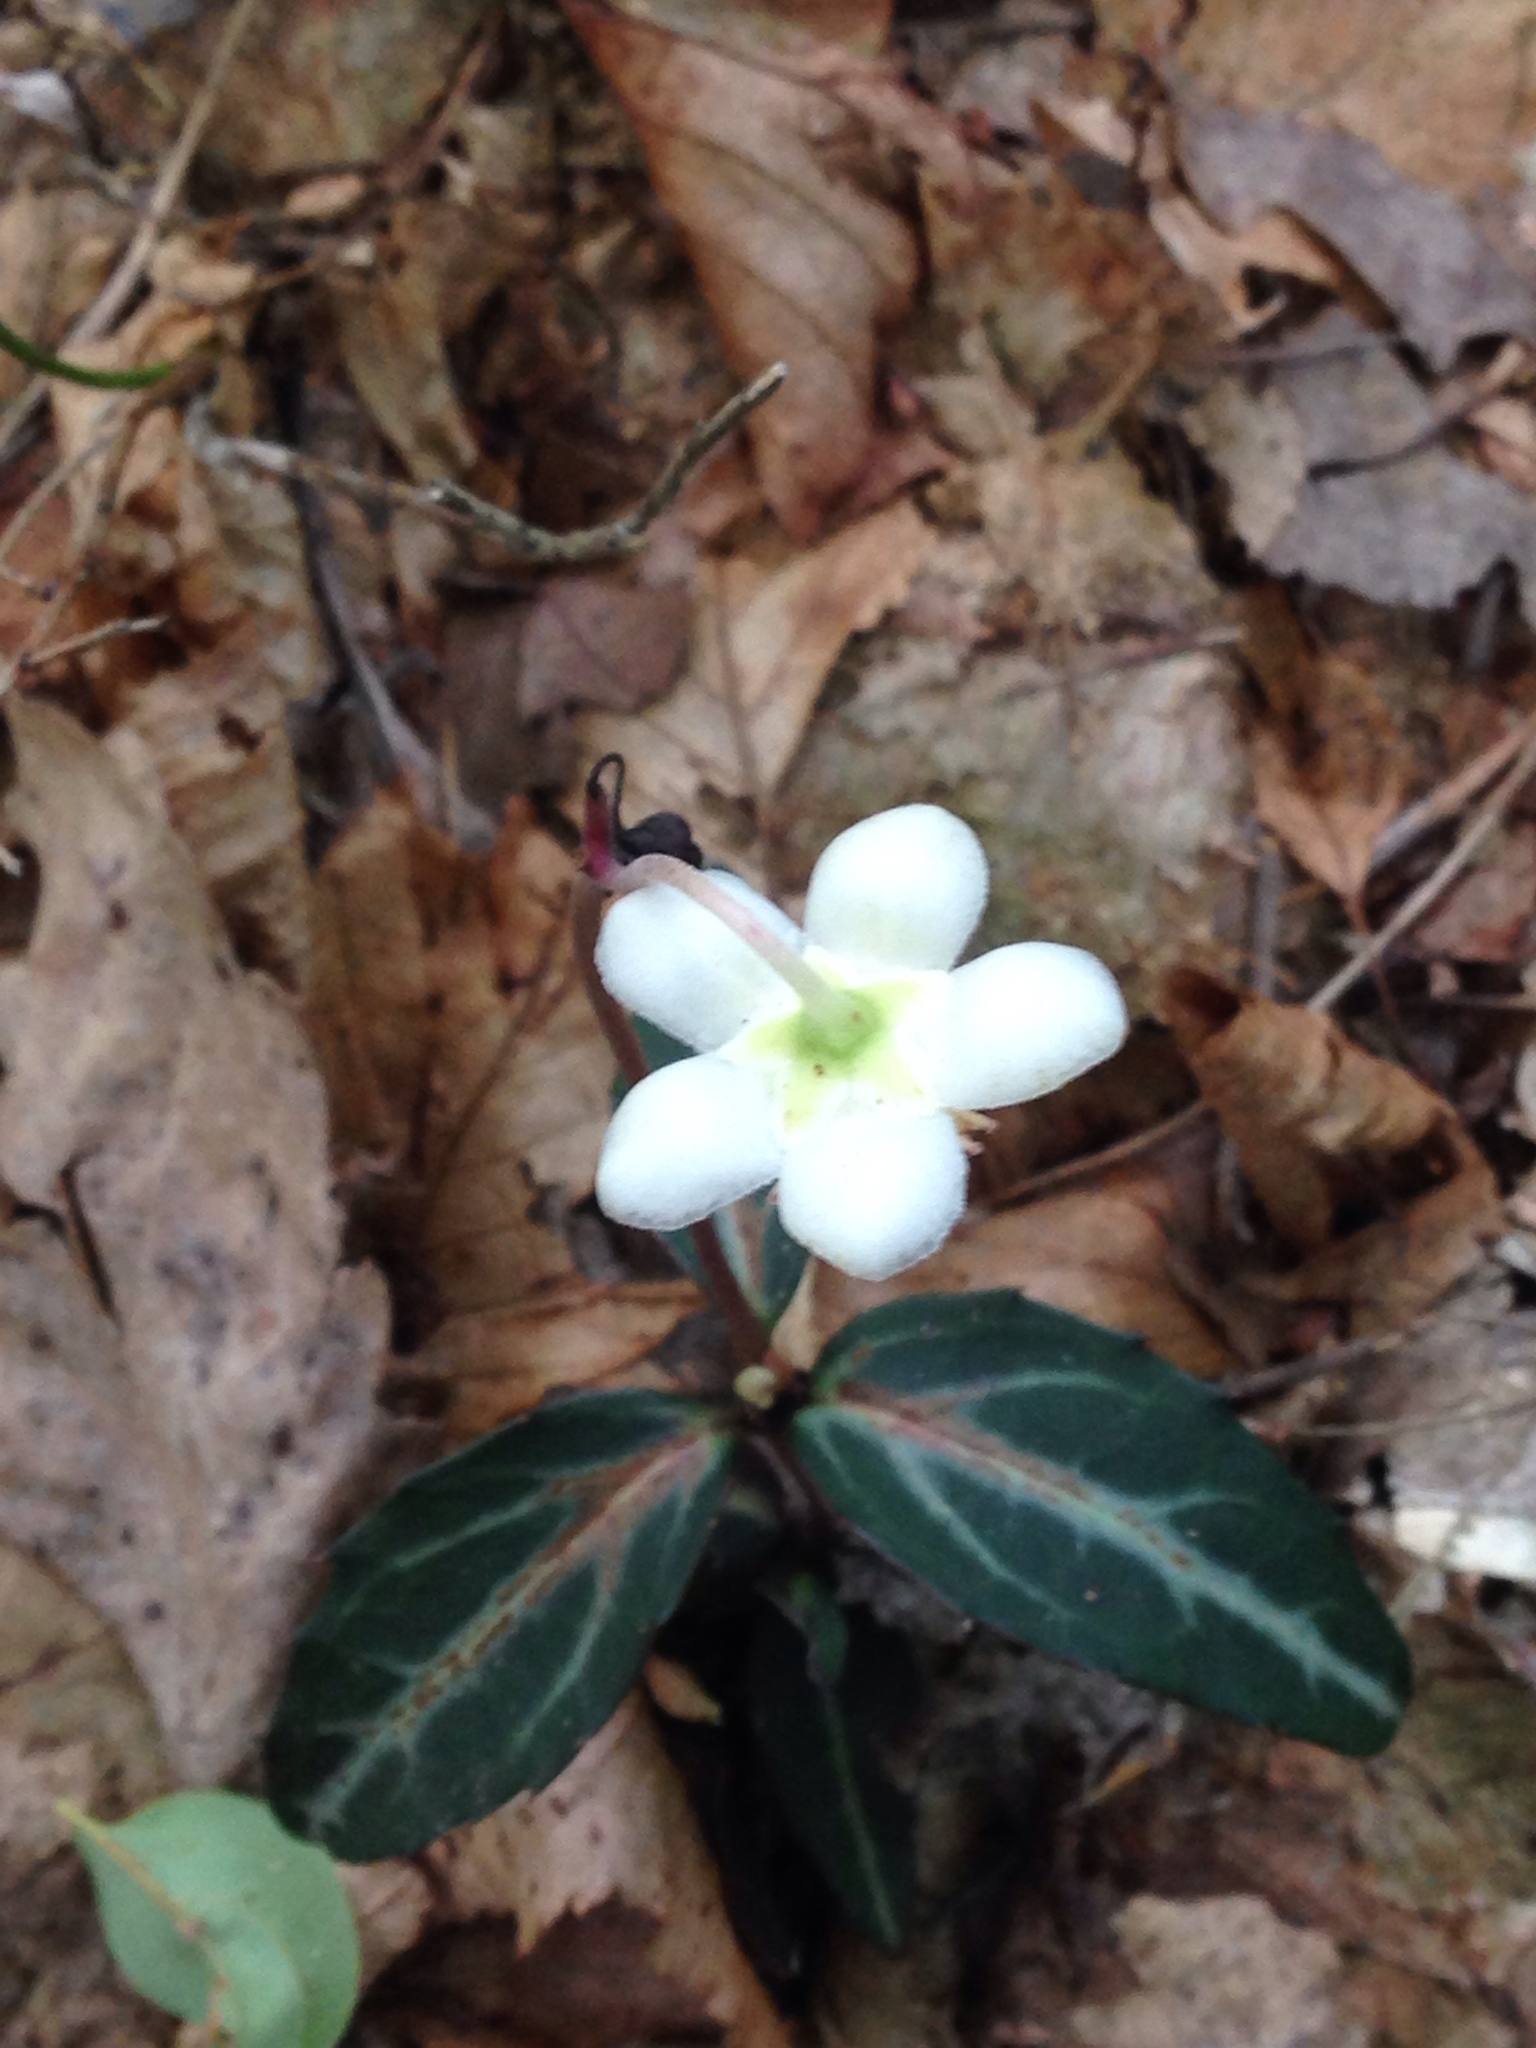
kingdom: Plantae
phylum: Tracheophyta
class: Magnoliopsida
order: Ericales
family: Ericaceae
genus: Chimaphila
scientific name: Chimaphila maculata
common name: Spotted pipsissewa
